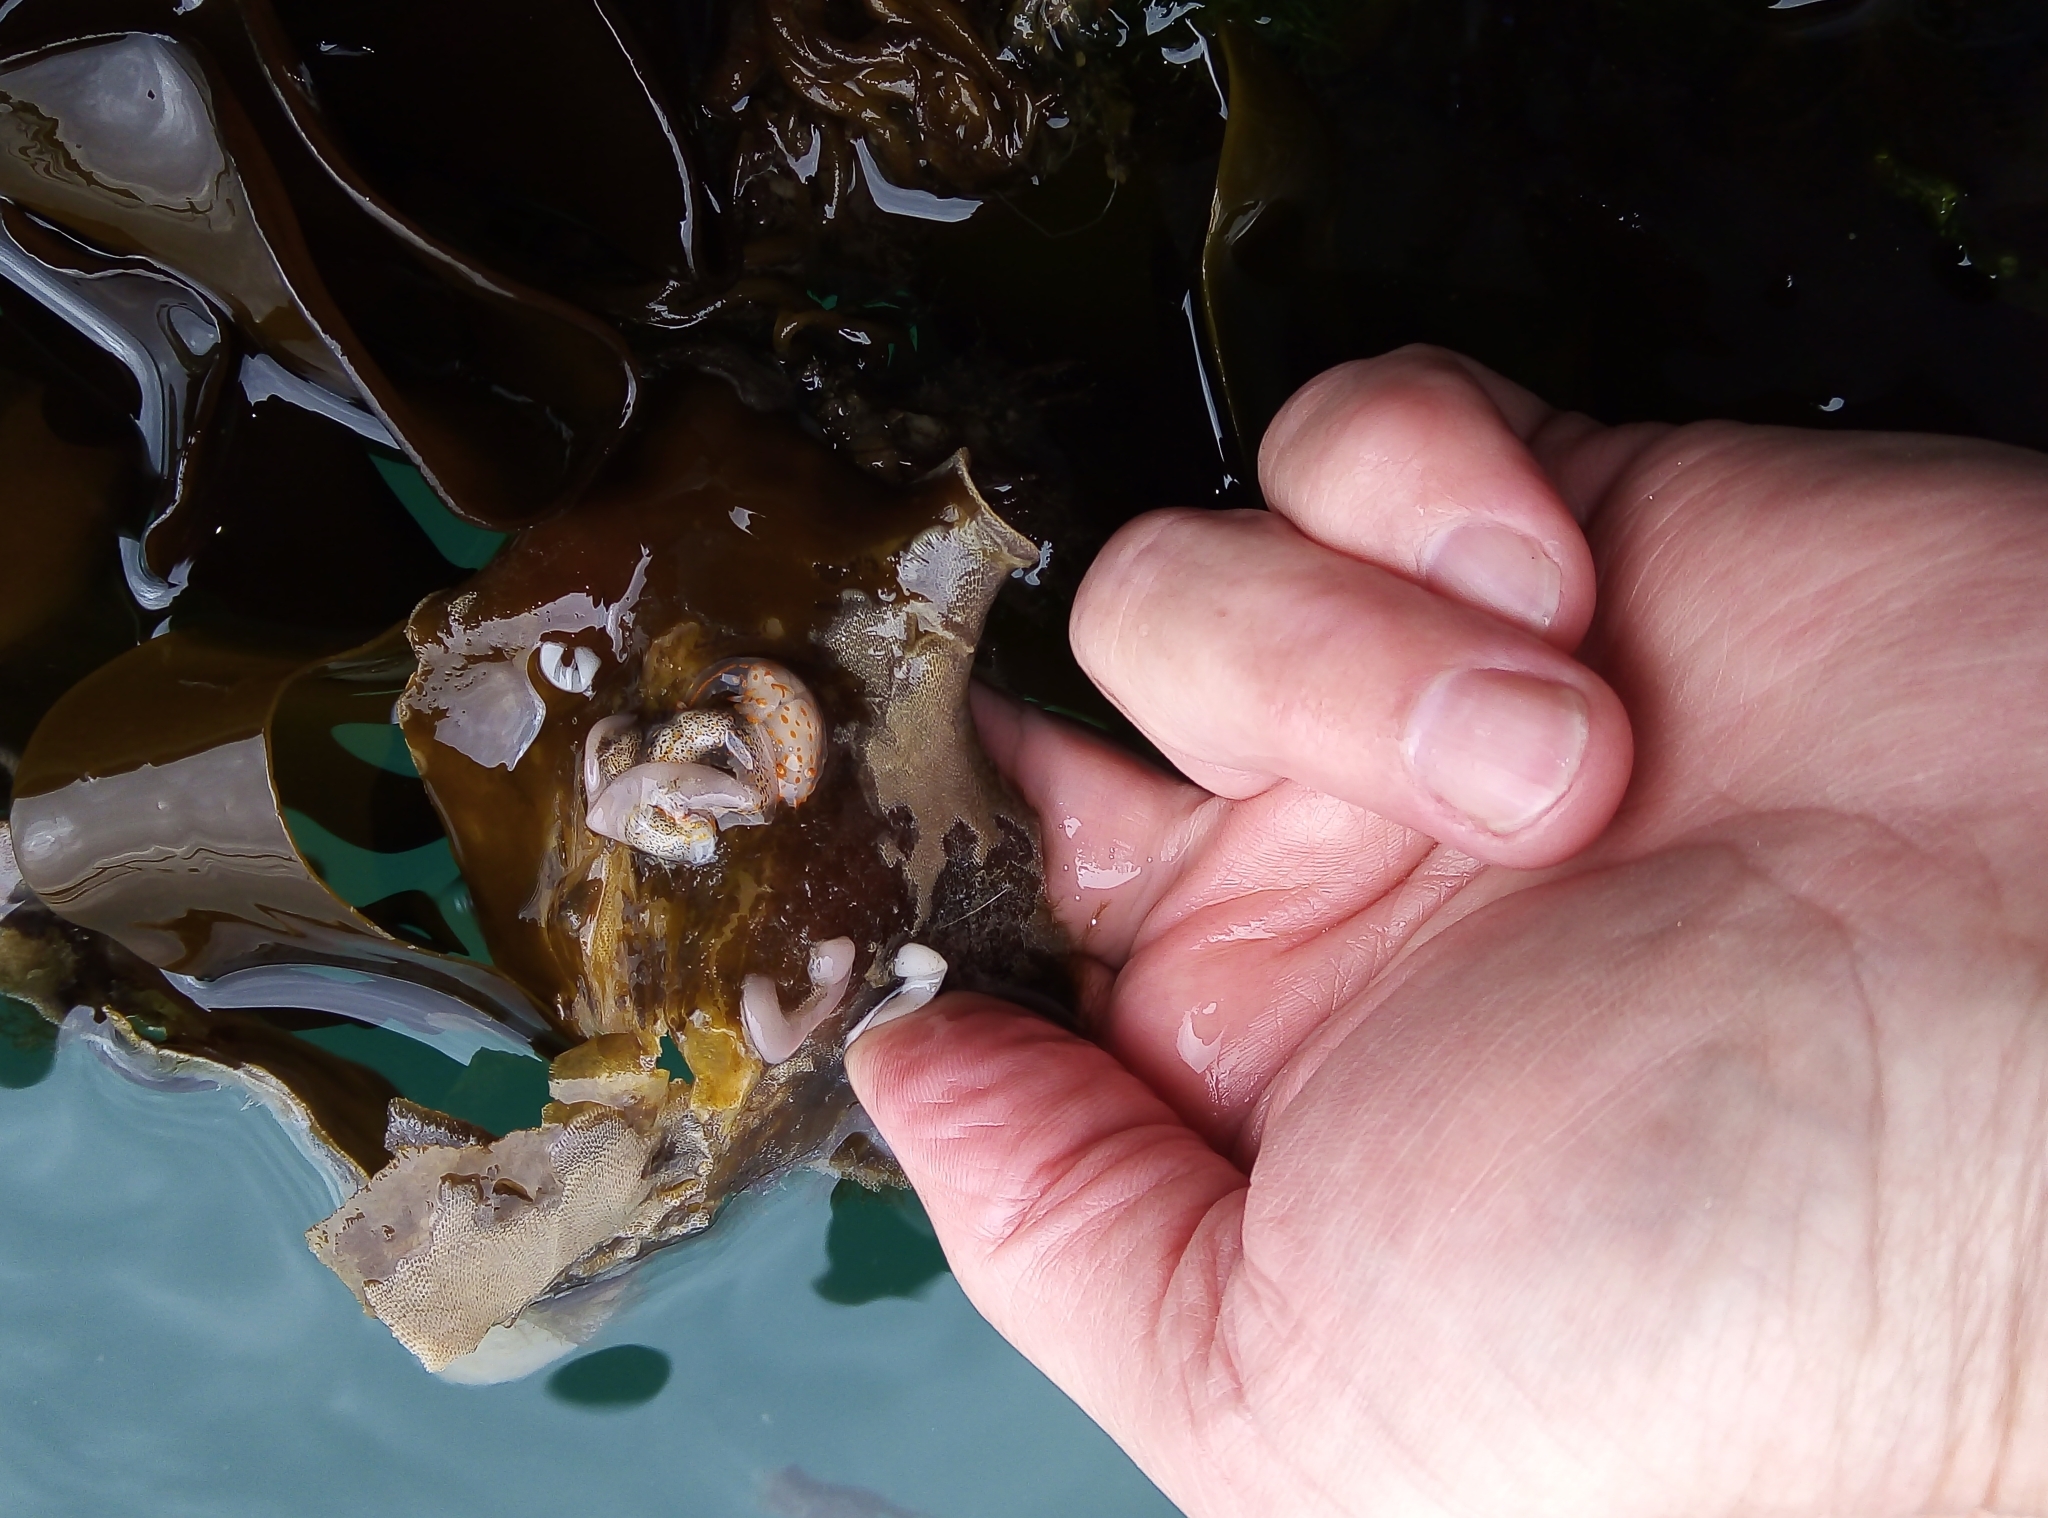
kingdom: Animalia
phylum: Mollusca
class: Gastropoda
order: Nudibranchia
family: Polyceridae
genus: Polycera
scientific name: Polycera quadrilineata
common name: Four-striped polycera
